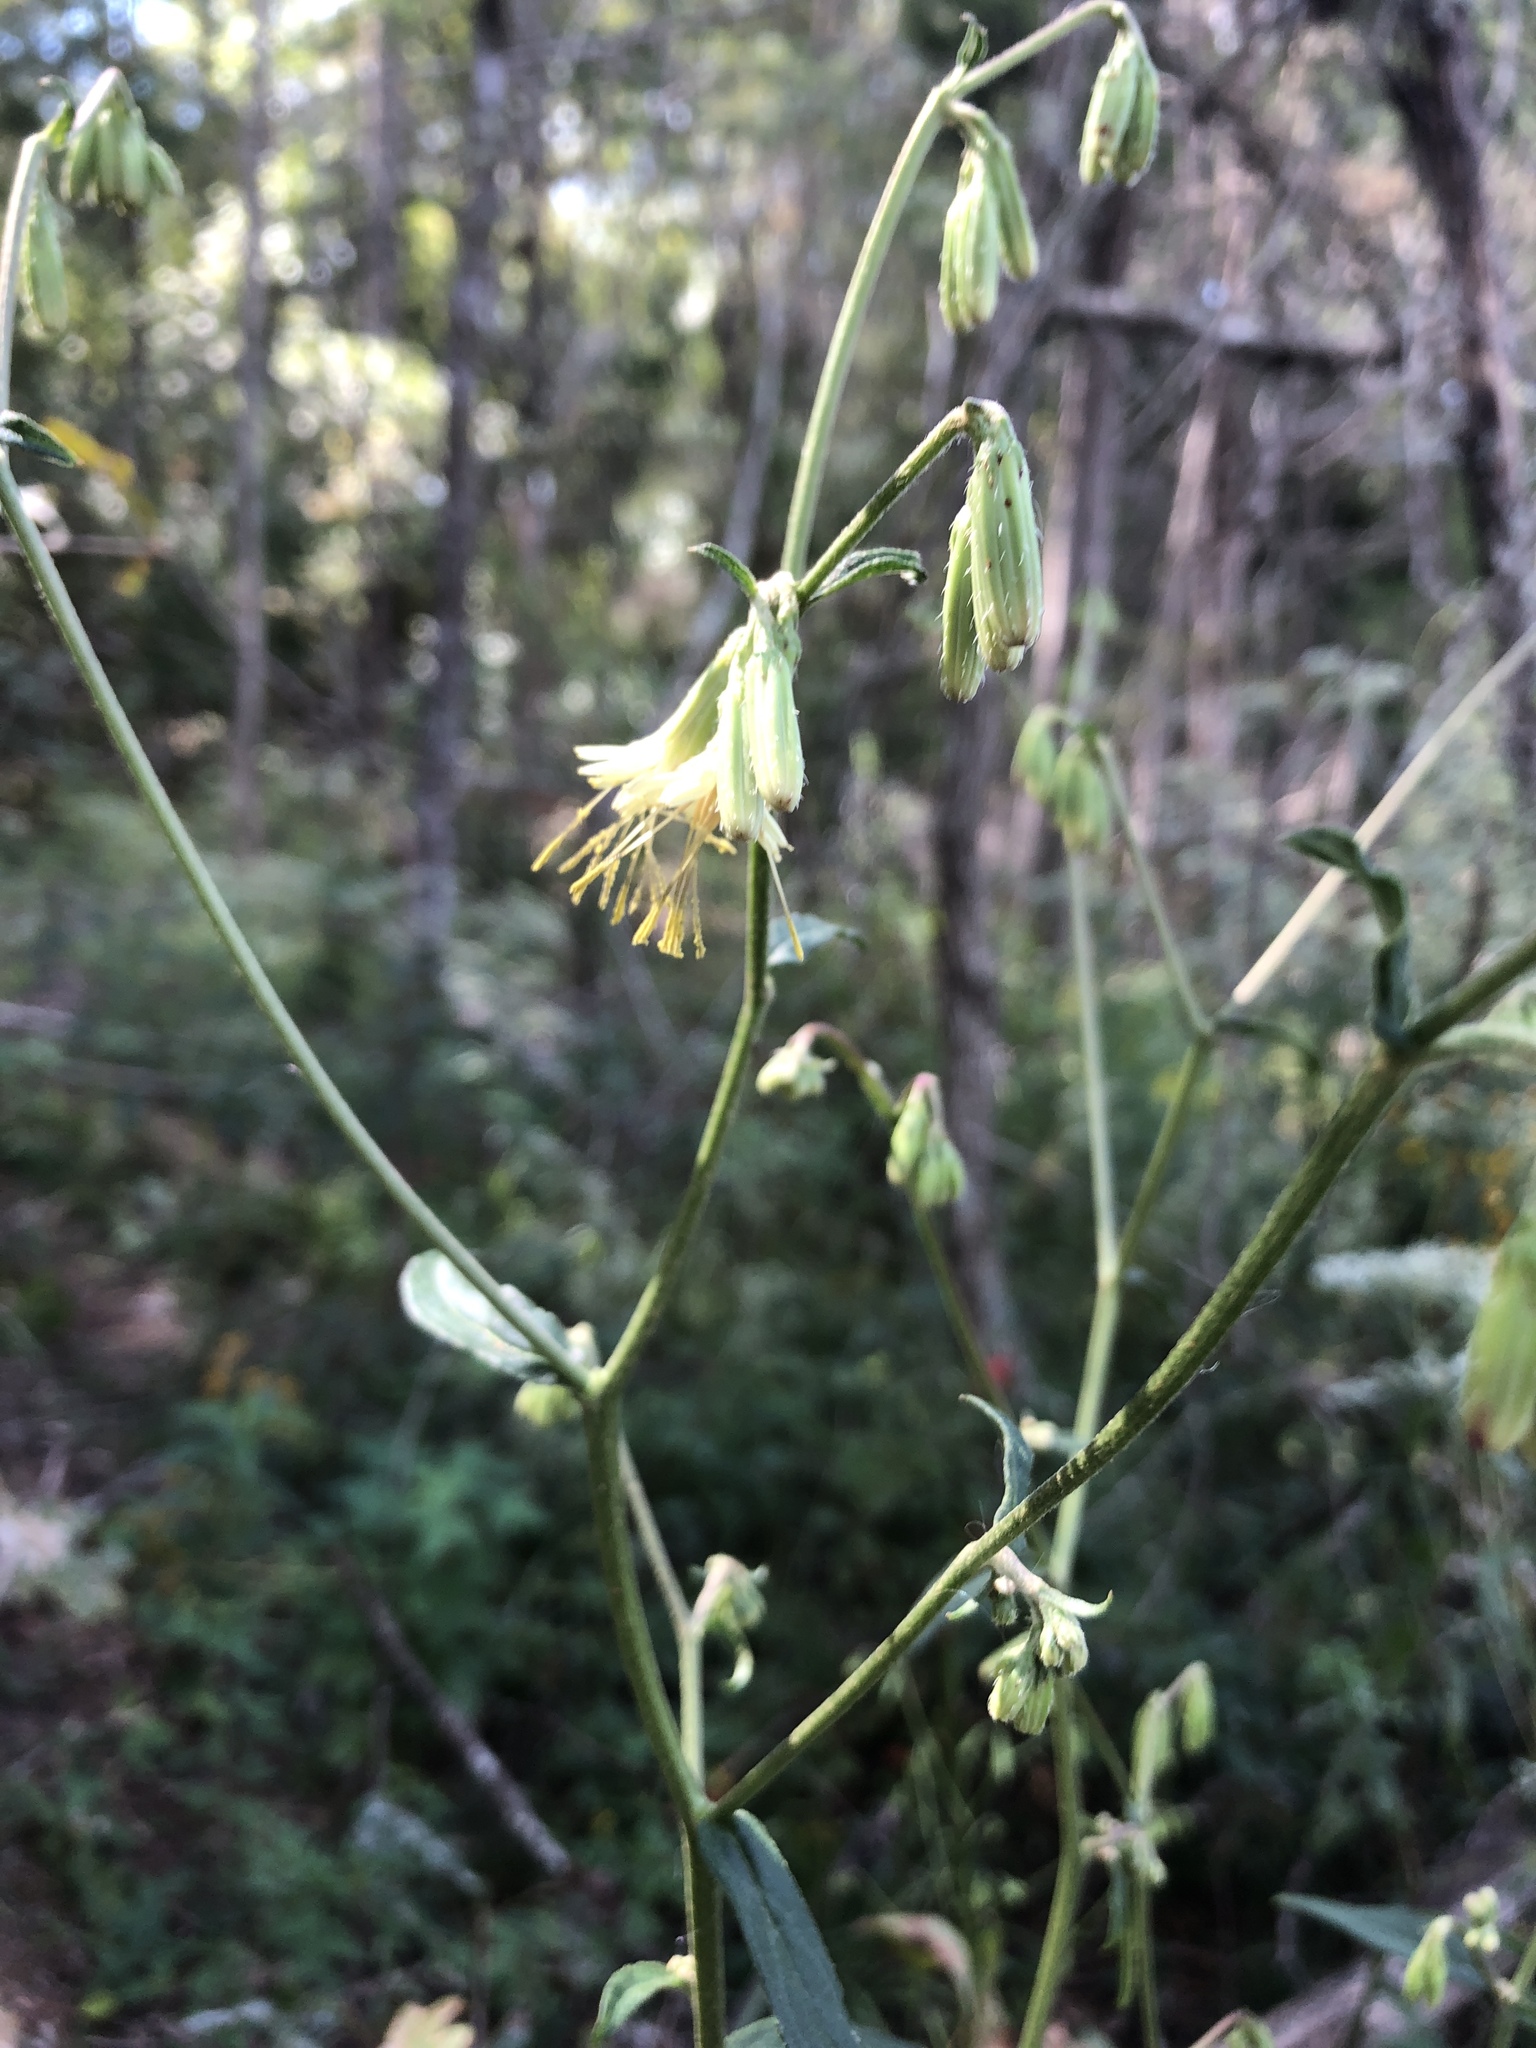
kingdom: Plantae
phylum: Tracheophyta
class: Magnoliopsida
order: Asterales
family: Asteraceae
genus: Nabalus
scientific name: Nabalus altissima
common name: Tall rattlesnakeroot
